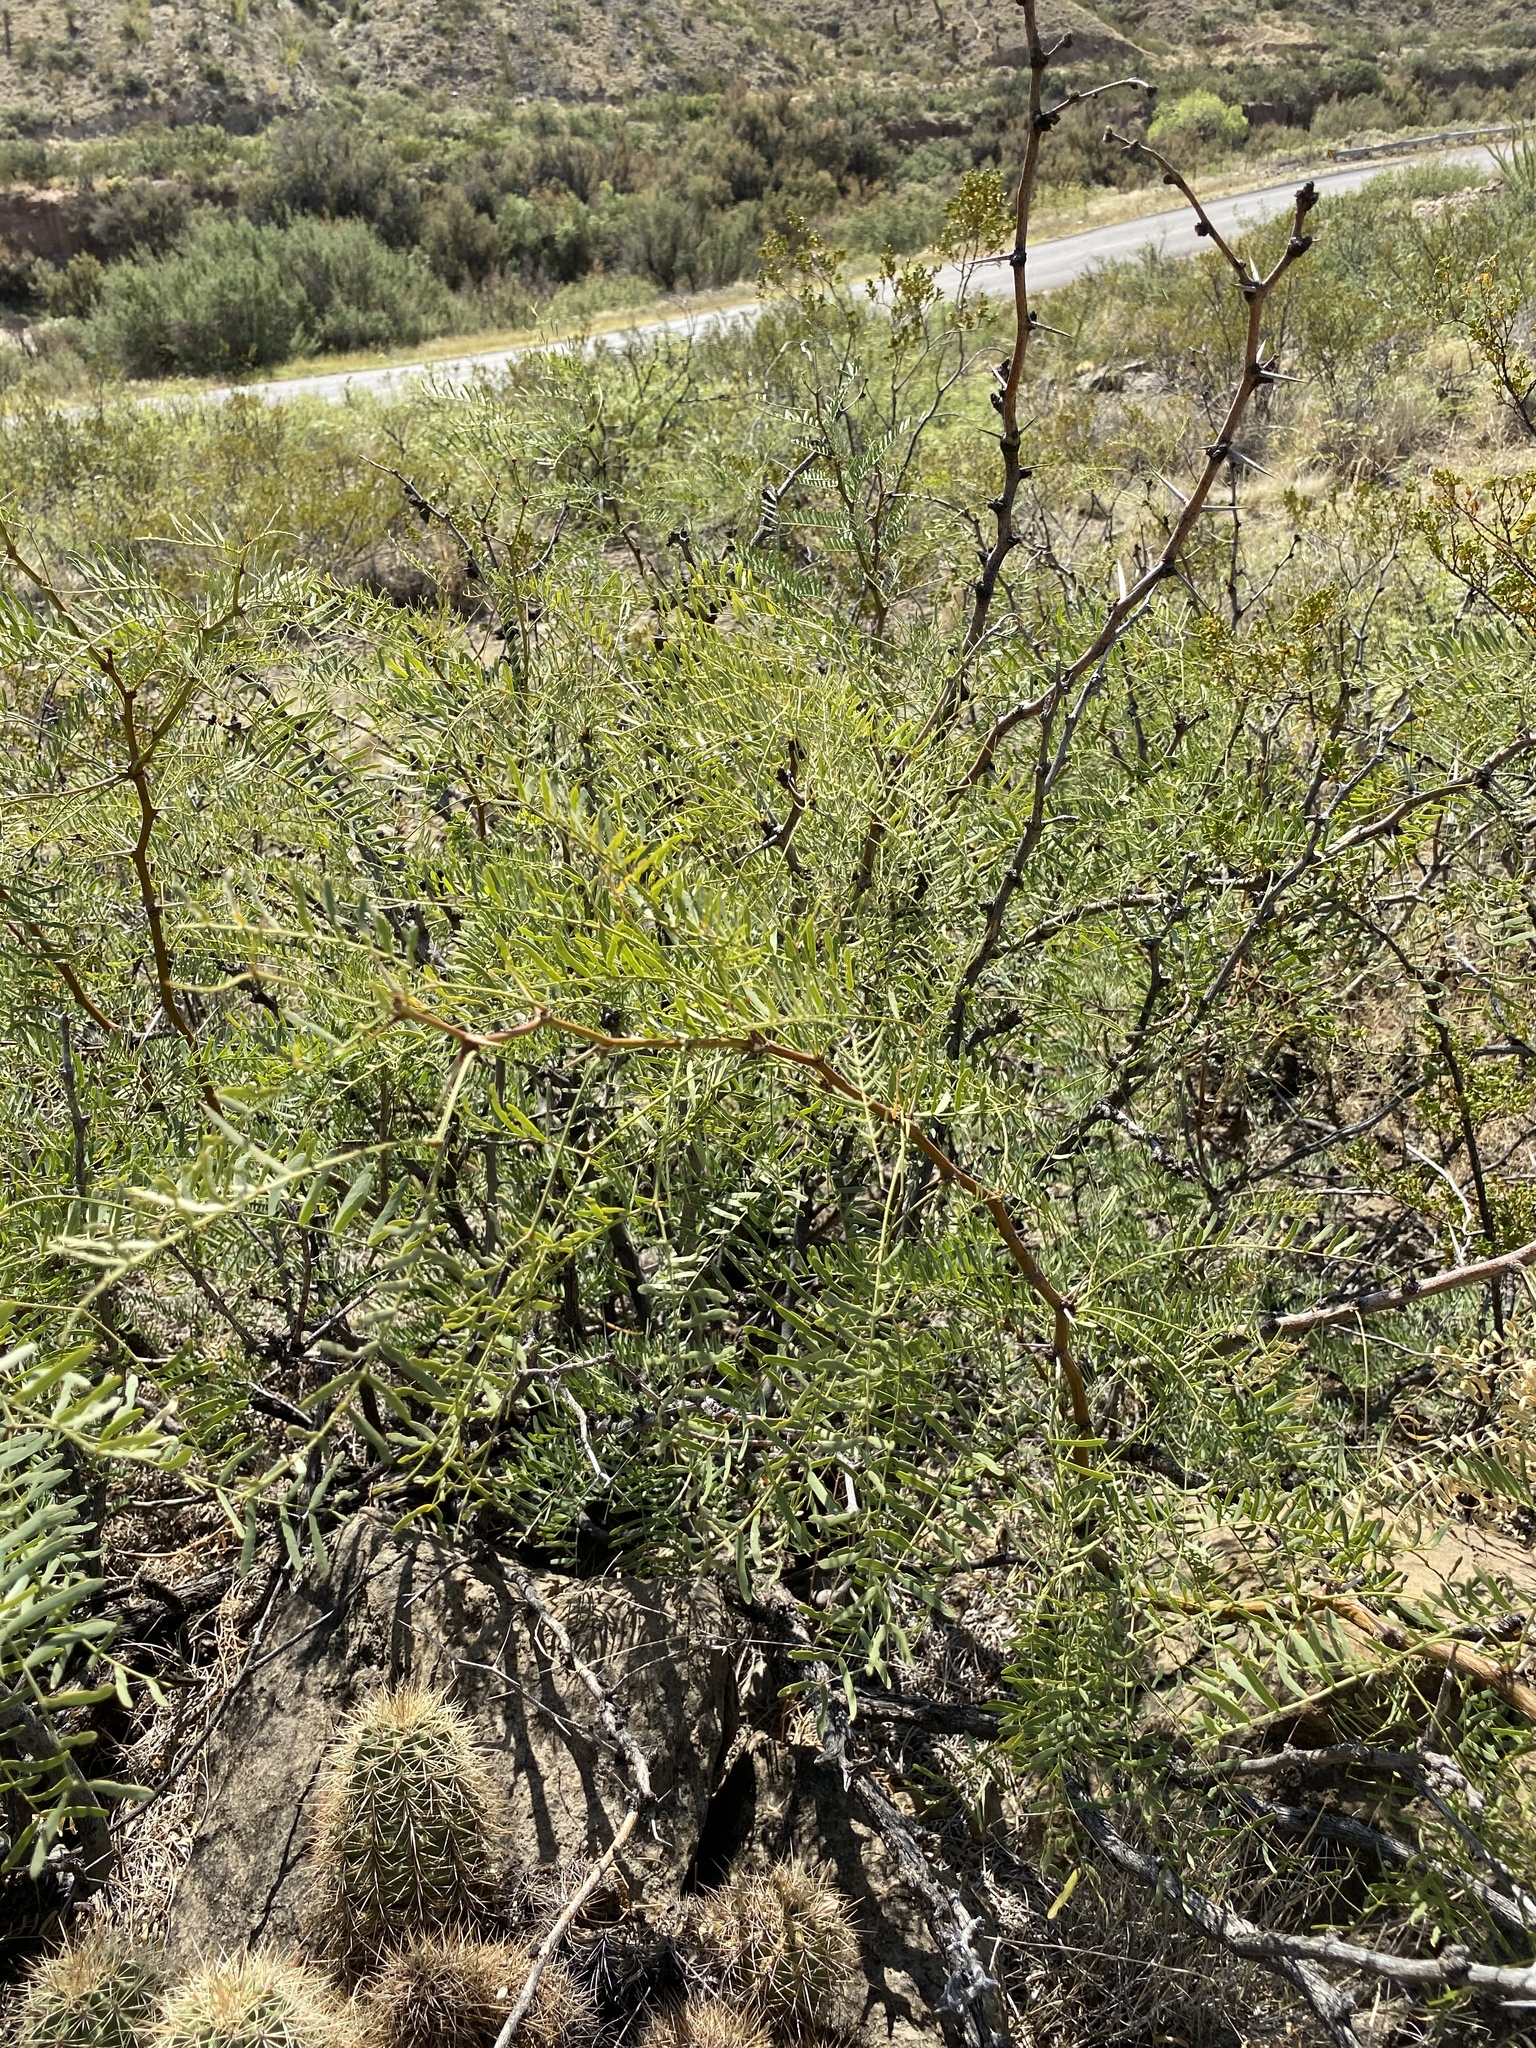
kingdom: Plantae
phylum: Tracheophyta
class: Magnoliopsida
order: Fabales
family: Fabaceae
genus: Prosopis
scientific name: Prosopis glandulosa
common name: Honey mesquite
